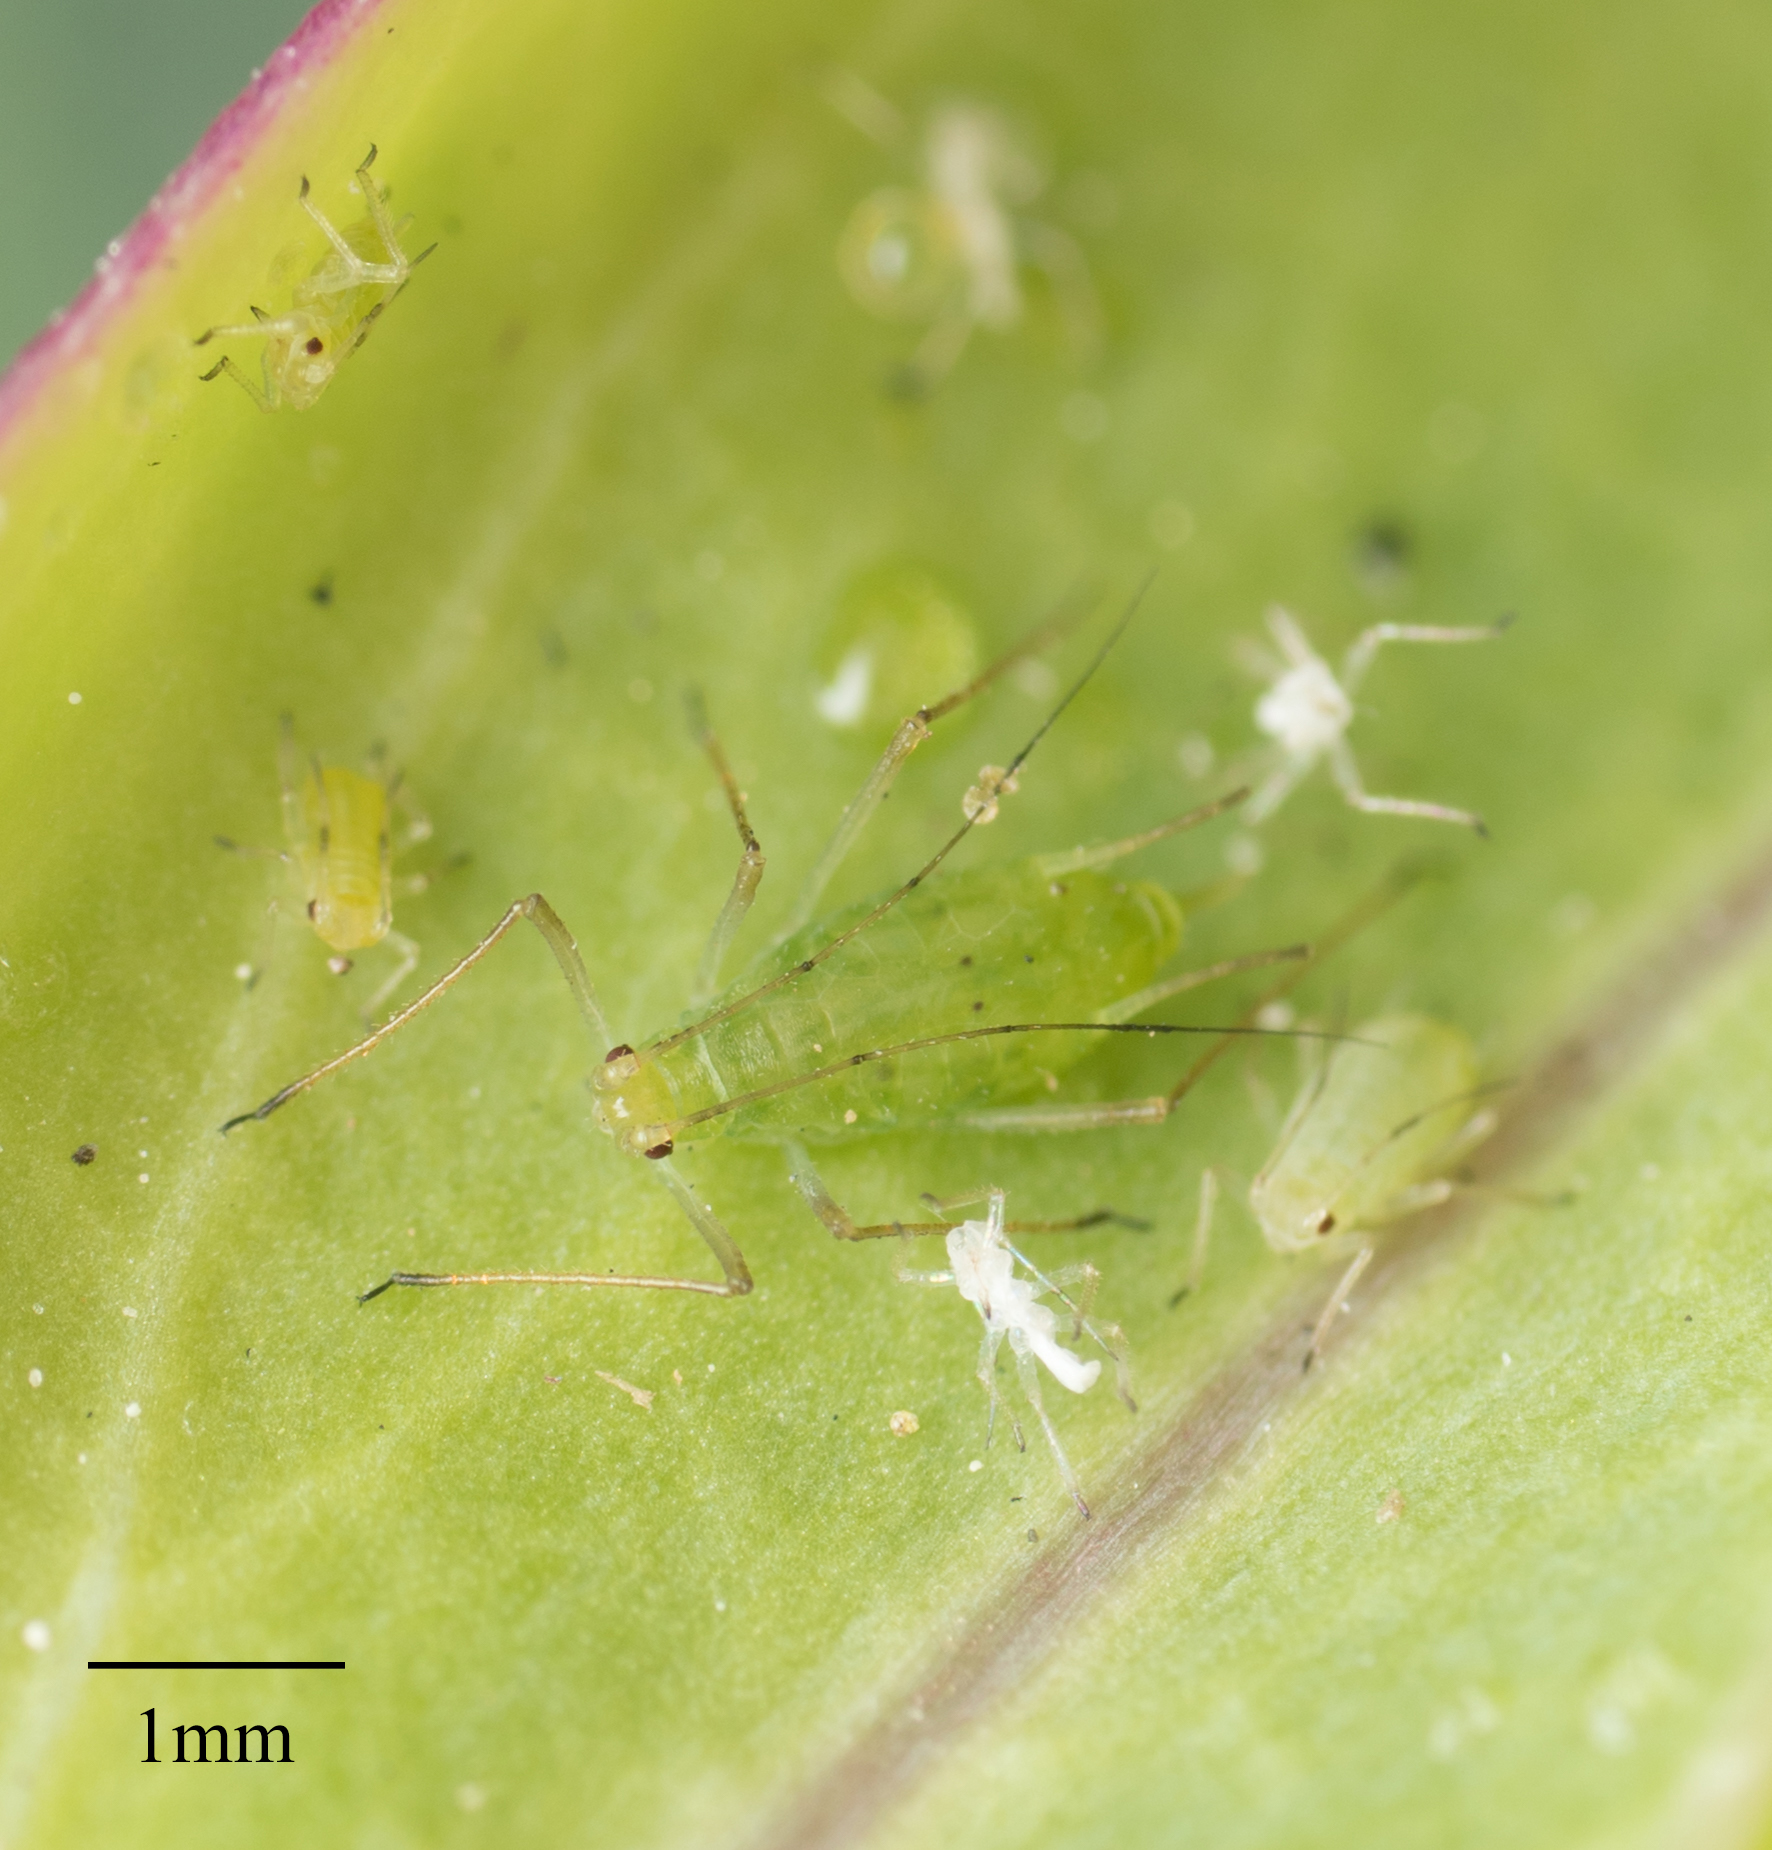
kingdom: Animalia
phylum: Arthropoda
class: Insecta
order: Hemiptera
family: Aphididae
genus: Macrosiphum
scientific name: Macrosiphum euphorbiae
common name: Potato aphid
